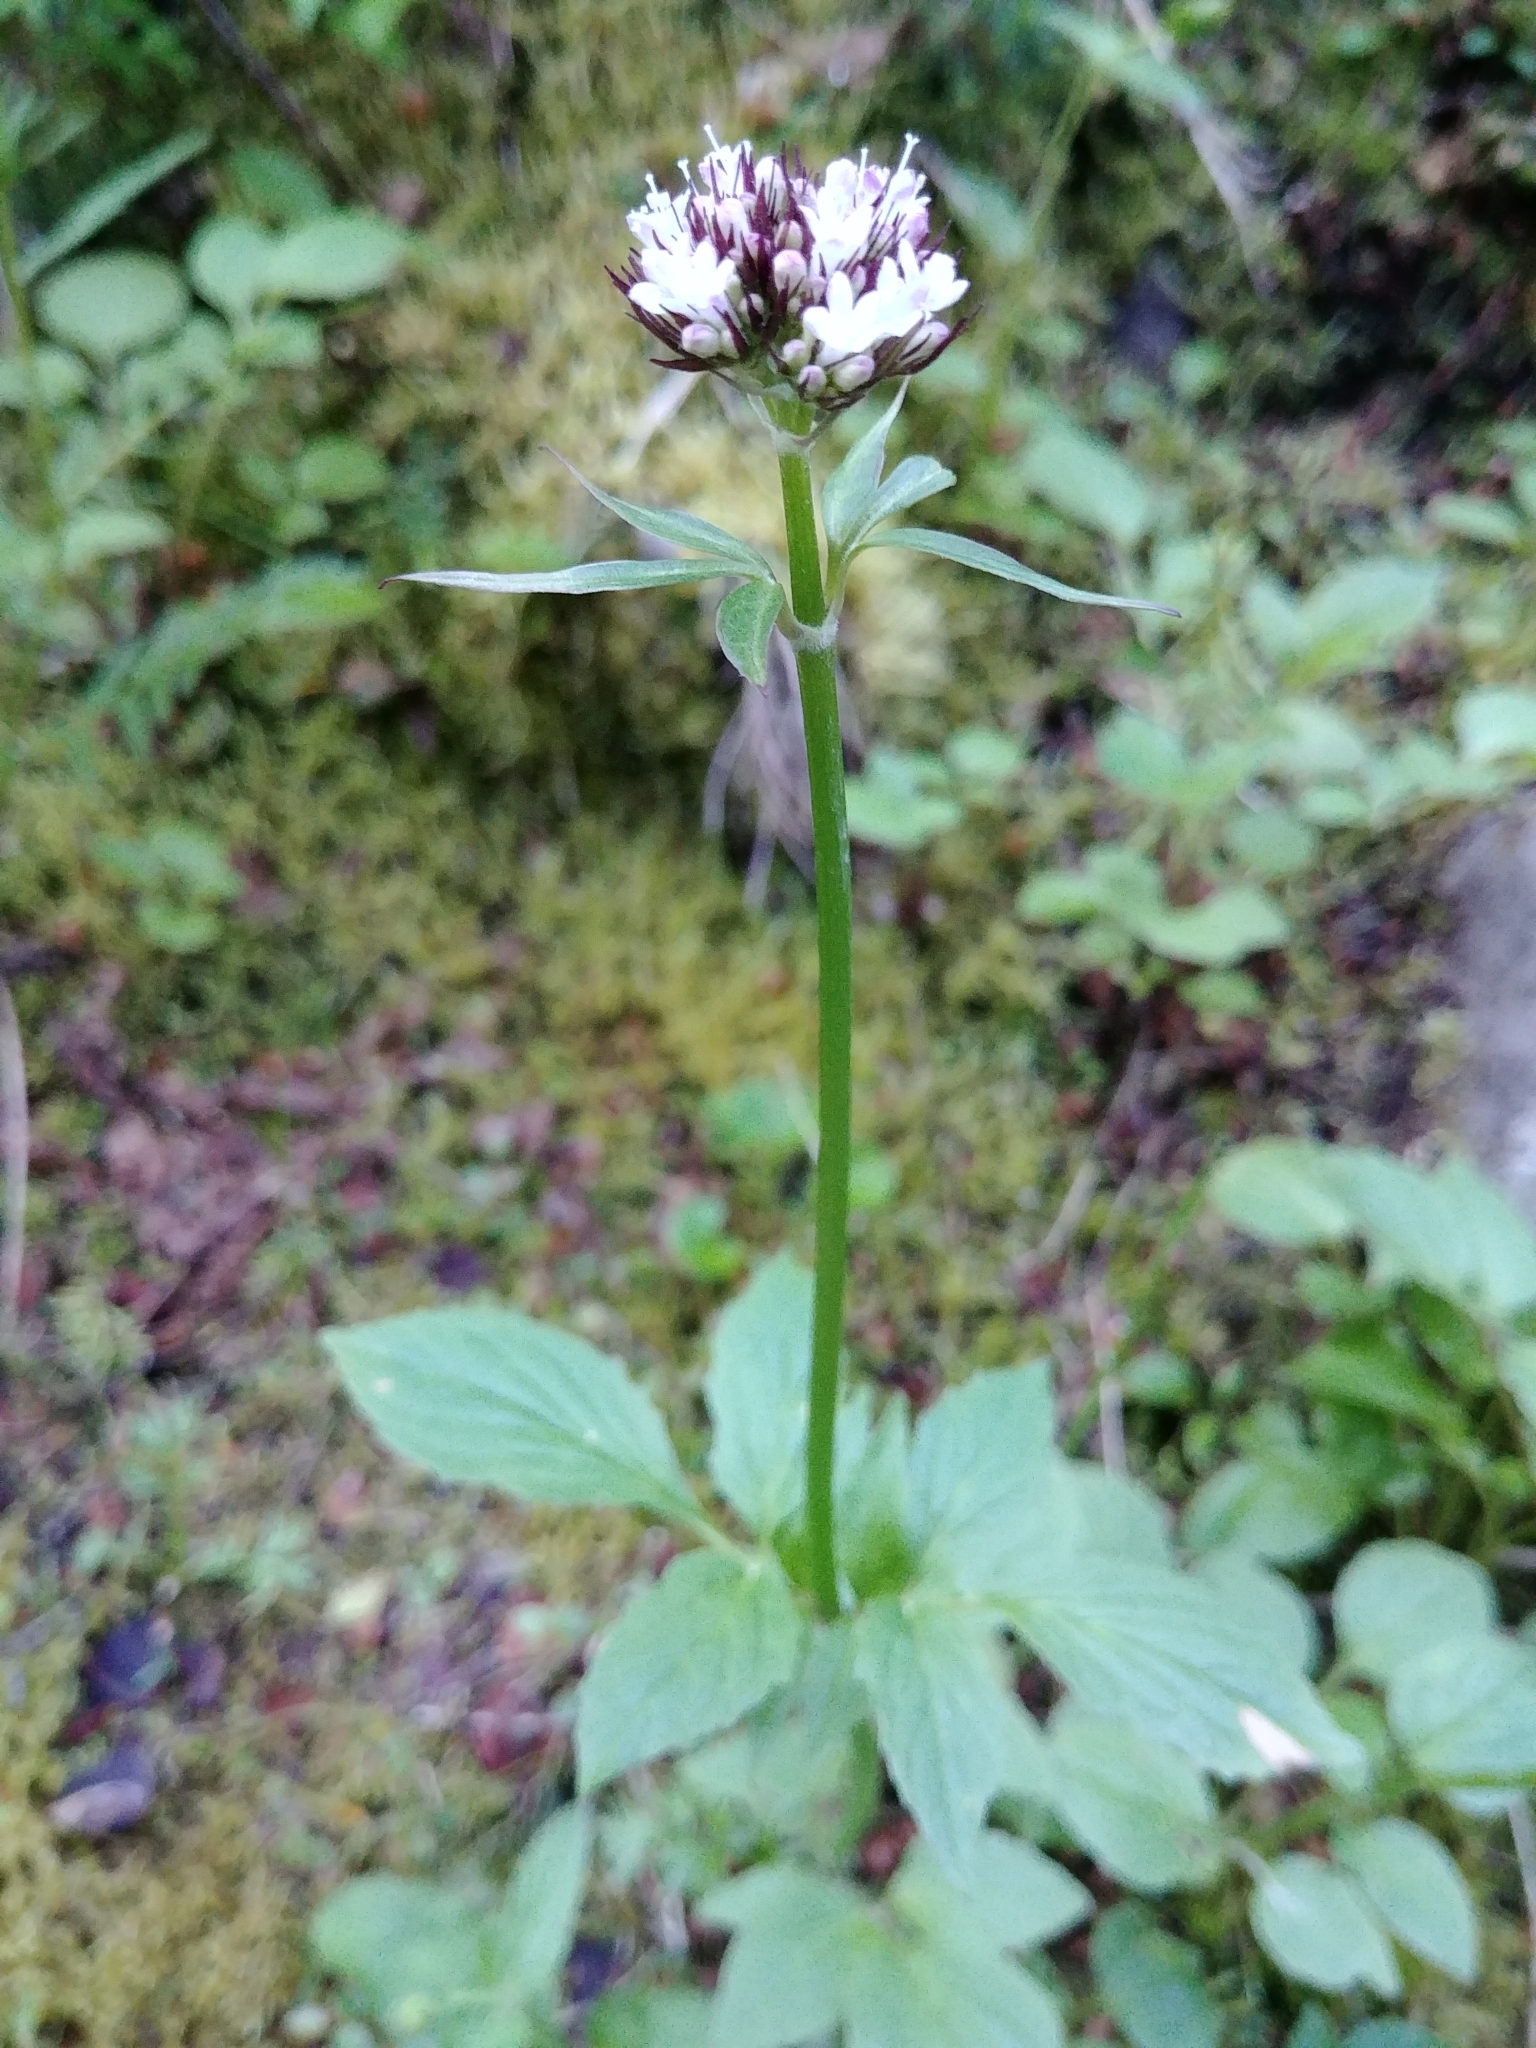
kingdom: Plantae
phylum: Tracheophyta
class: Magnoliopsida
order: Dipsacales
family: Caprifoliaceae
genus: Valeriana
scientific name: Valeriana sitchensis
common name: Pacific valerian
